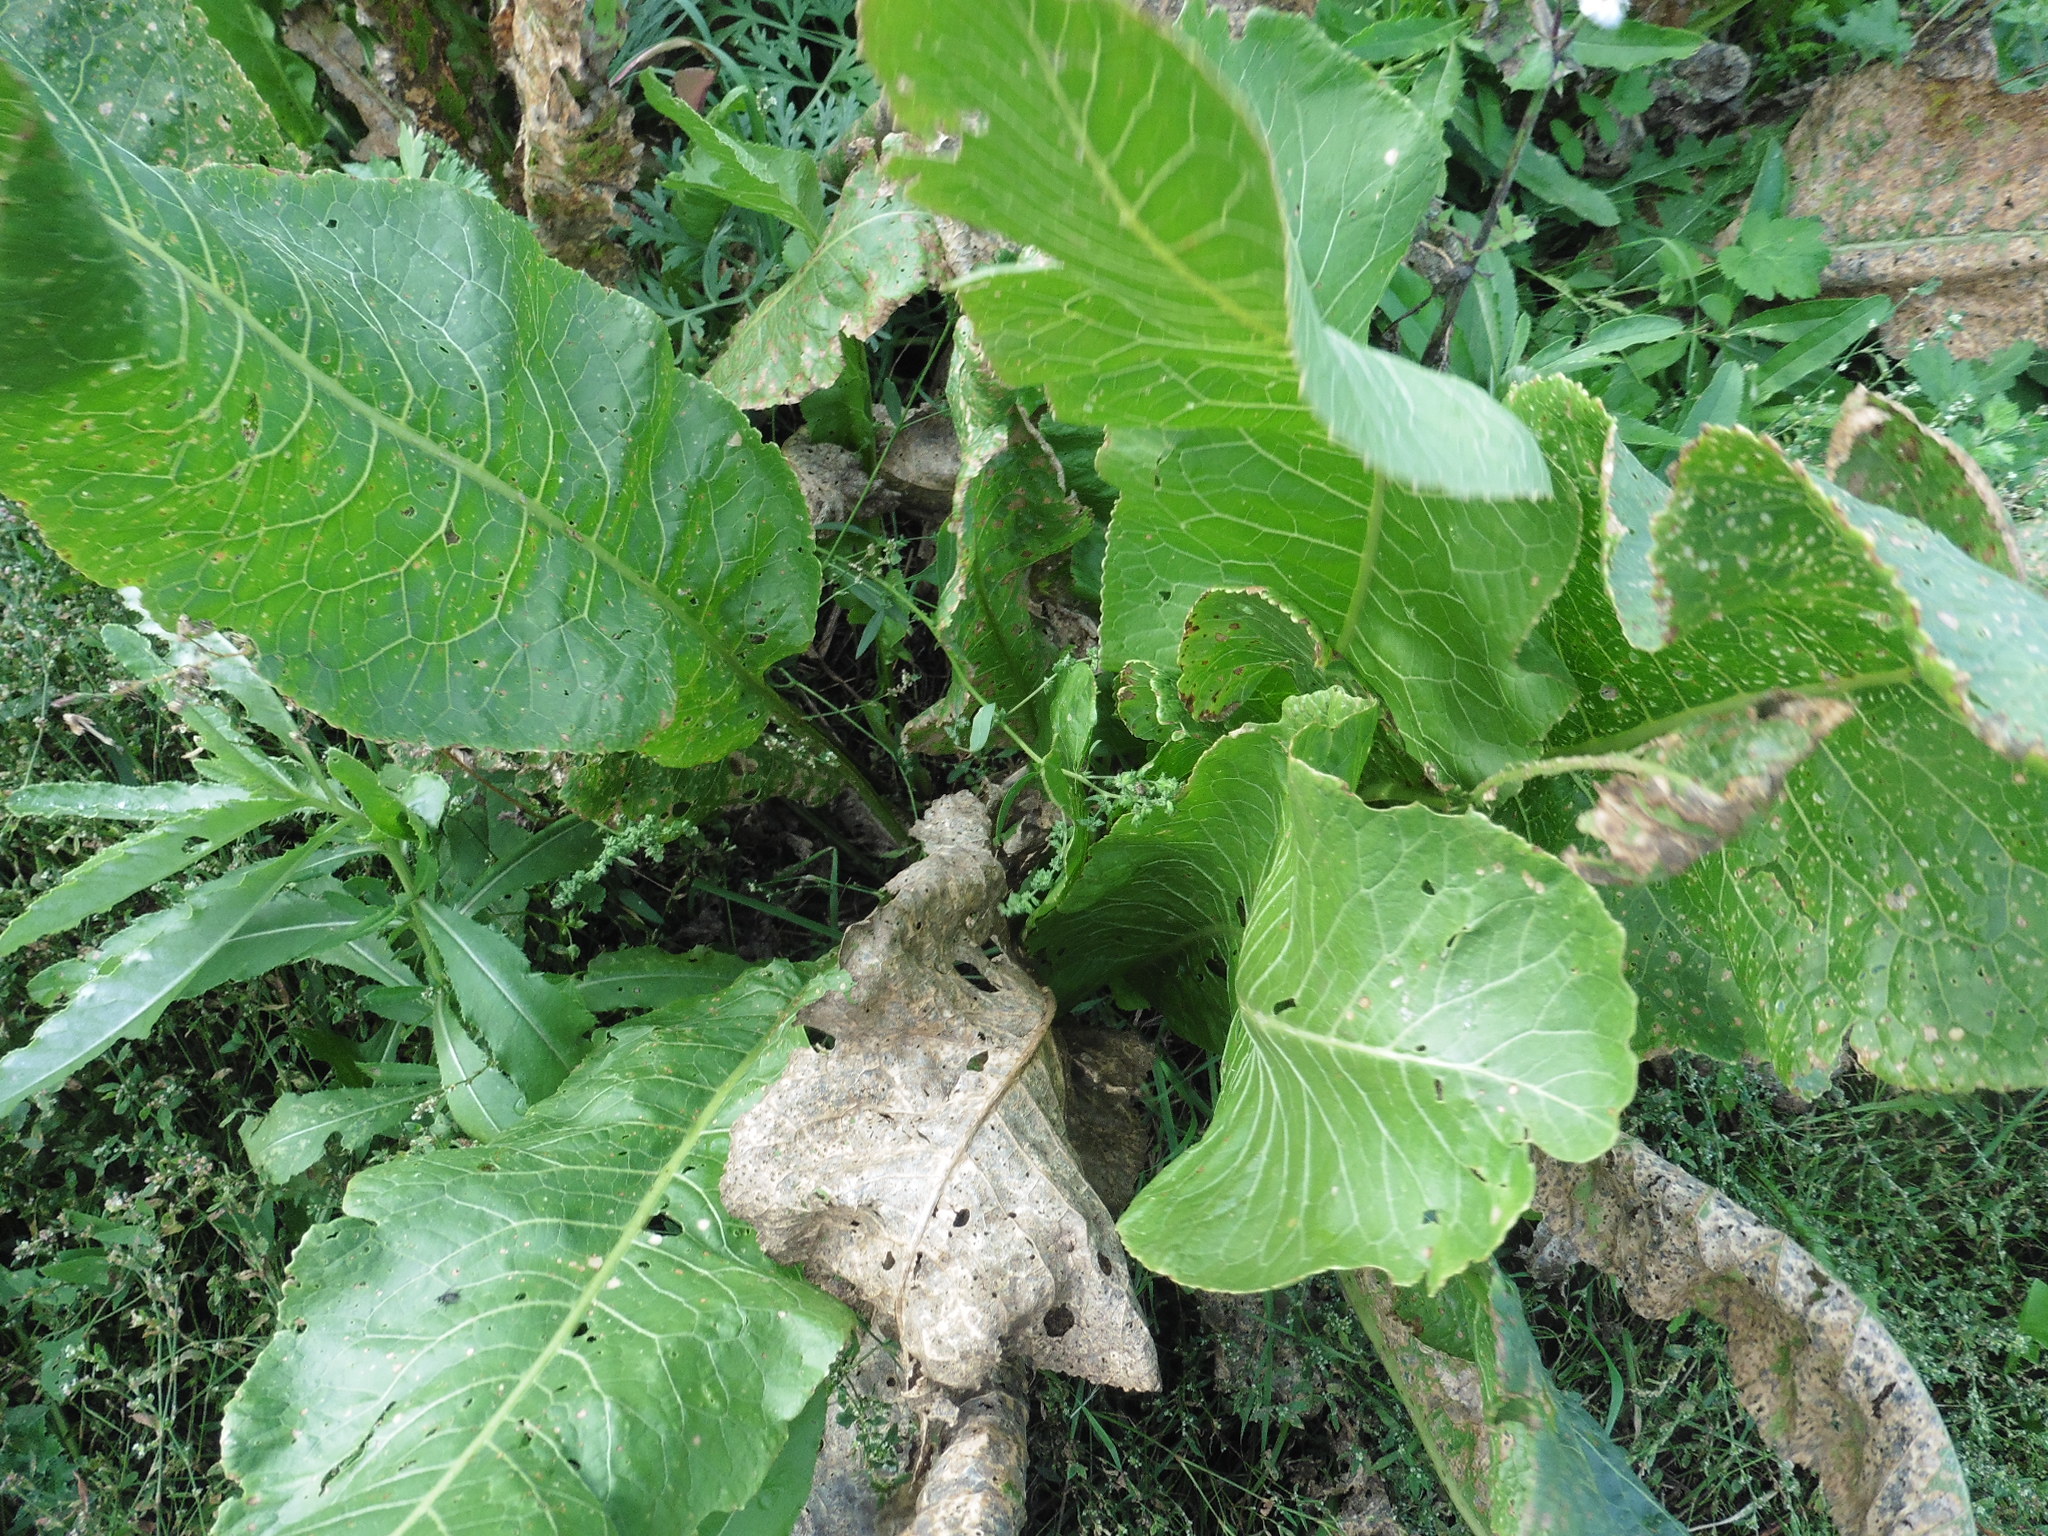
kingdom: Plantae
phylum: Tracheophyta
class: Magnoliopsida
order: Brassicales
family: Brassicaceae
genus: Armoracia
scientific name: Armoracia rusticana
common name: Horseradish
